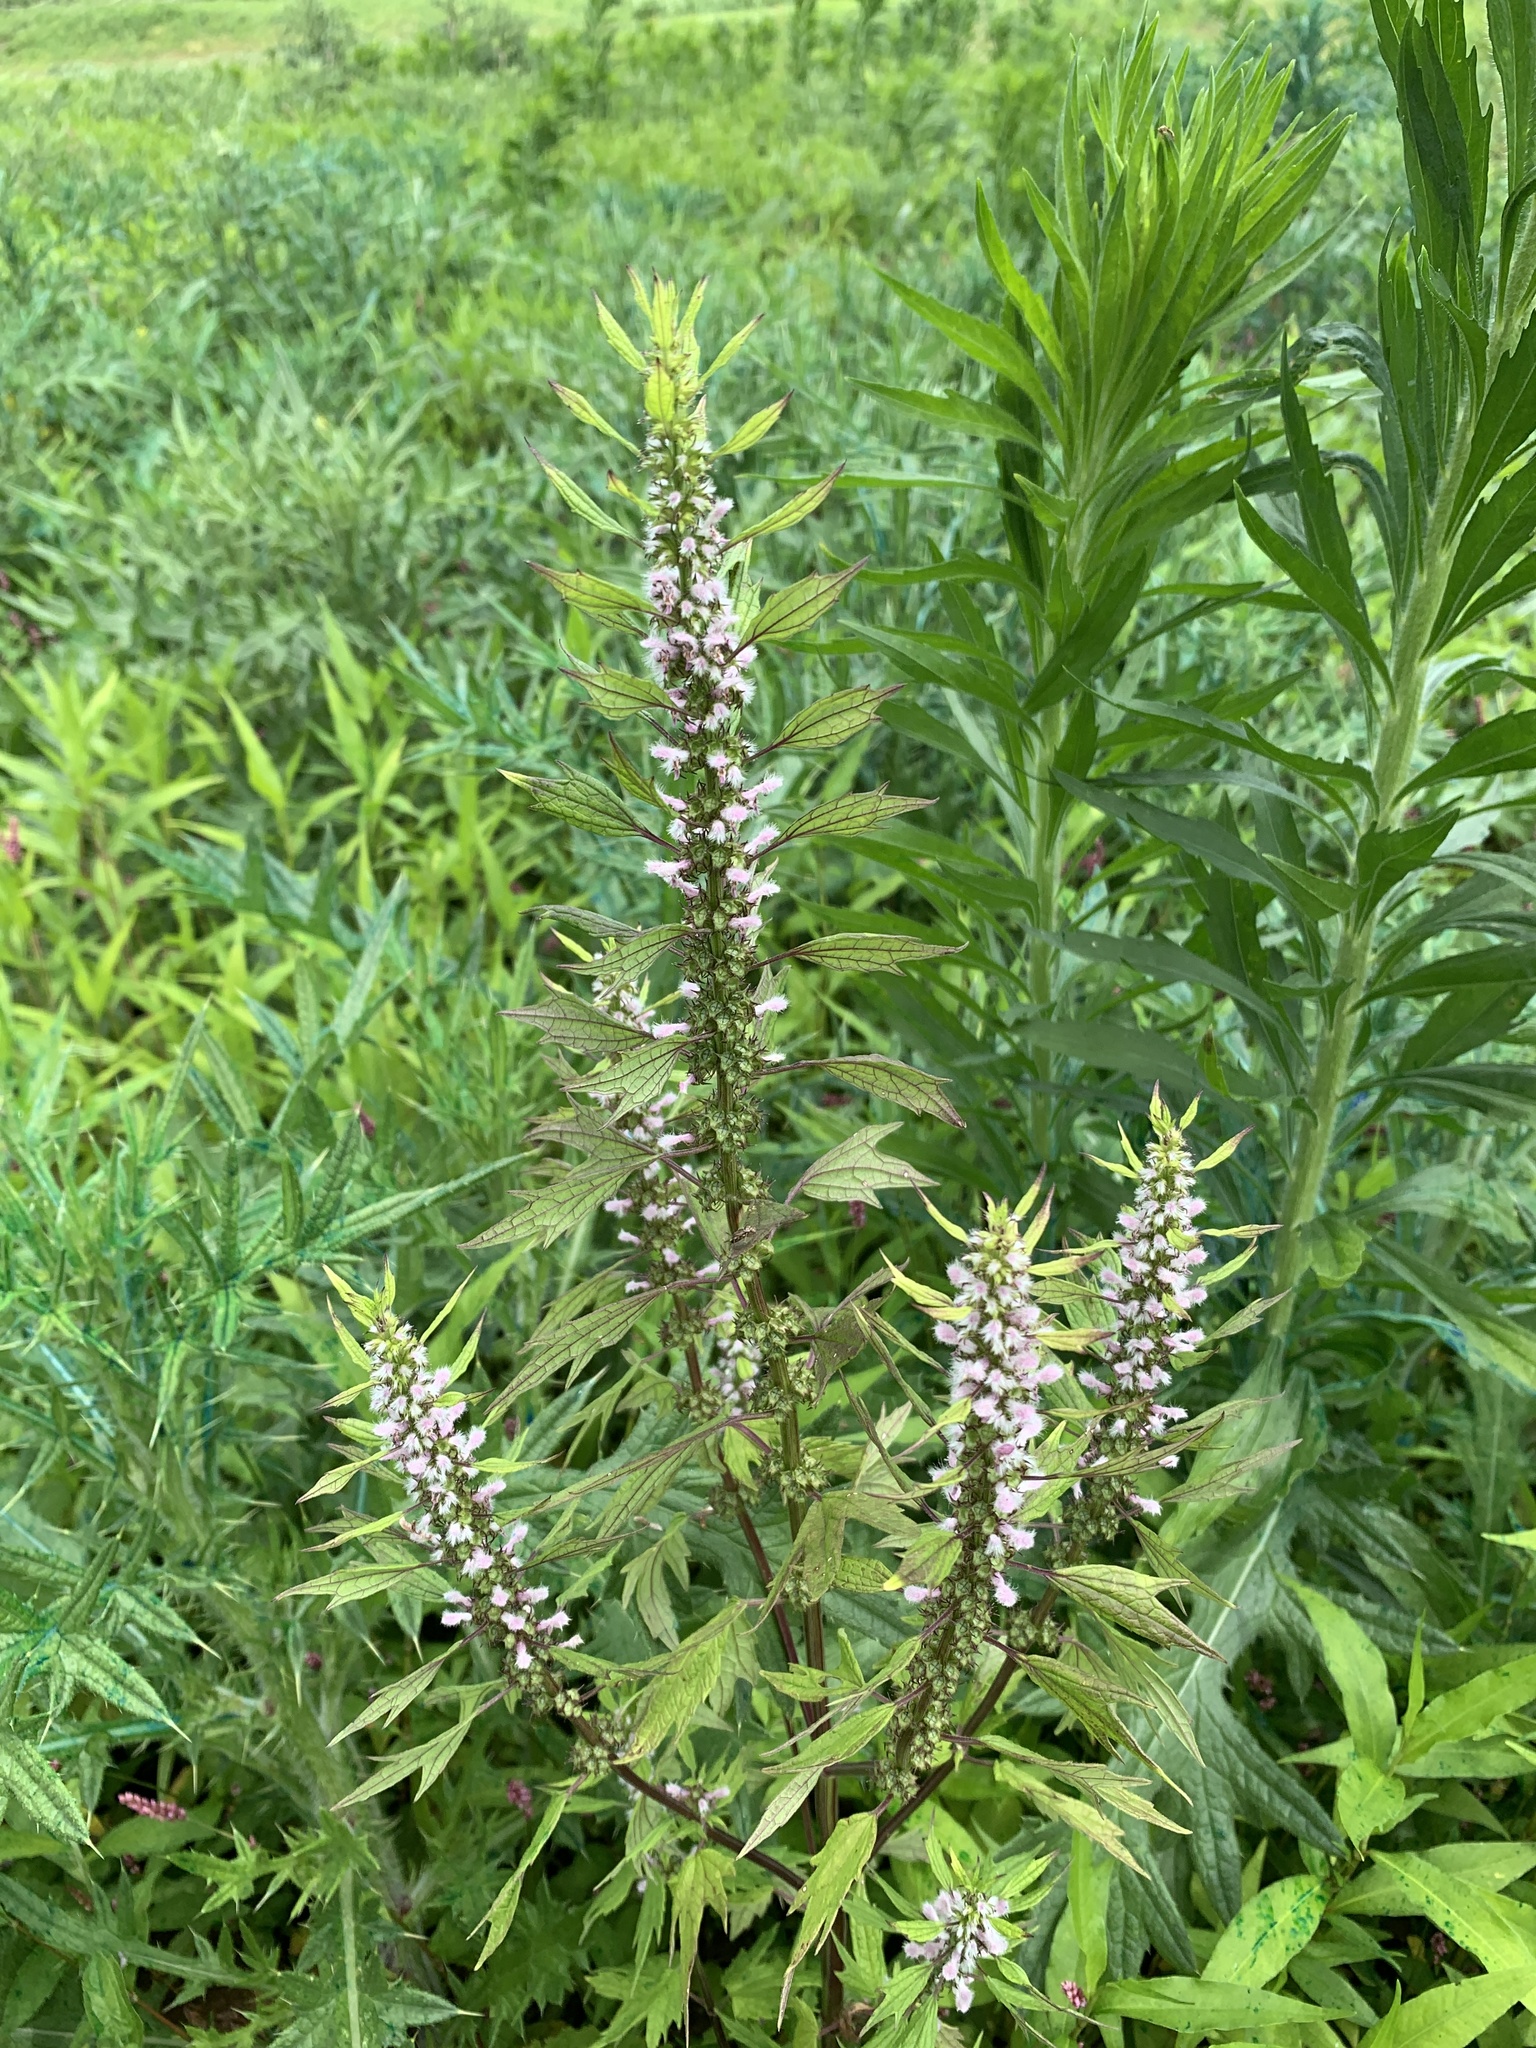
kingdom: Plantae
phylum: Tracheophyta
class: Magnoliopsida
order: Lamiales
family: Lamiaceae
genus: Leonurus
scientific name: Leonurus cardiaca
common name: Motherwort
